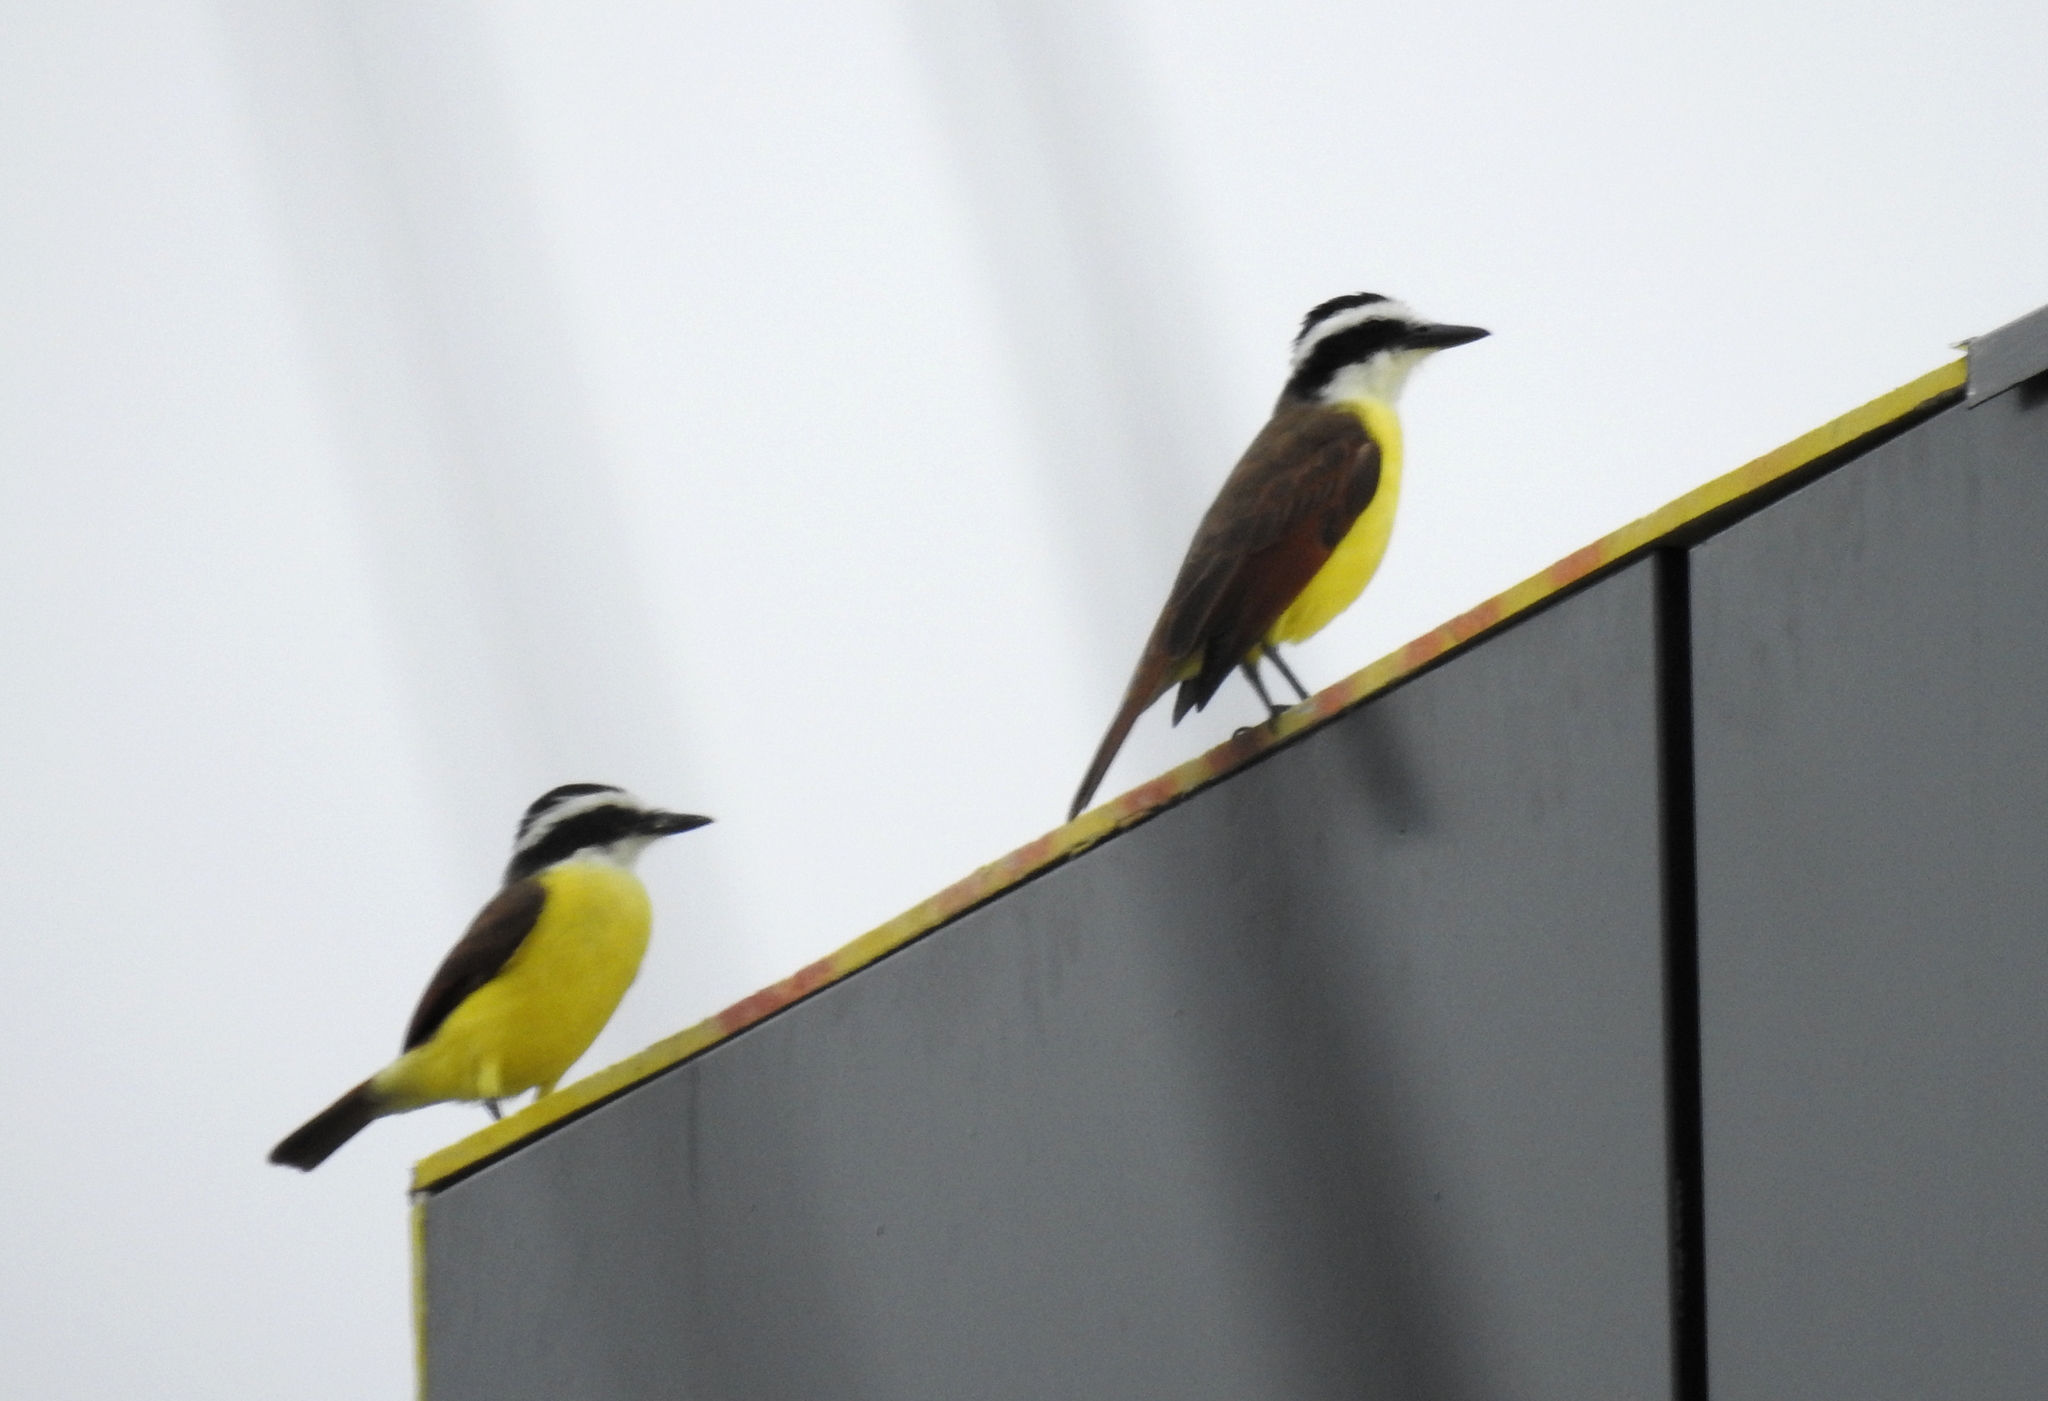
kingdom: Animalia
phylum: Chordata
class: Aves
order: Passeriformes
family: Tyrannidae
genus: Pitangus
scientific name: Pitangus sulphuratus
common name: Great kiskadee
